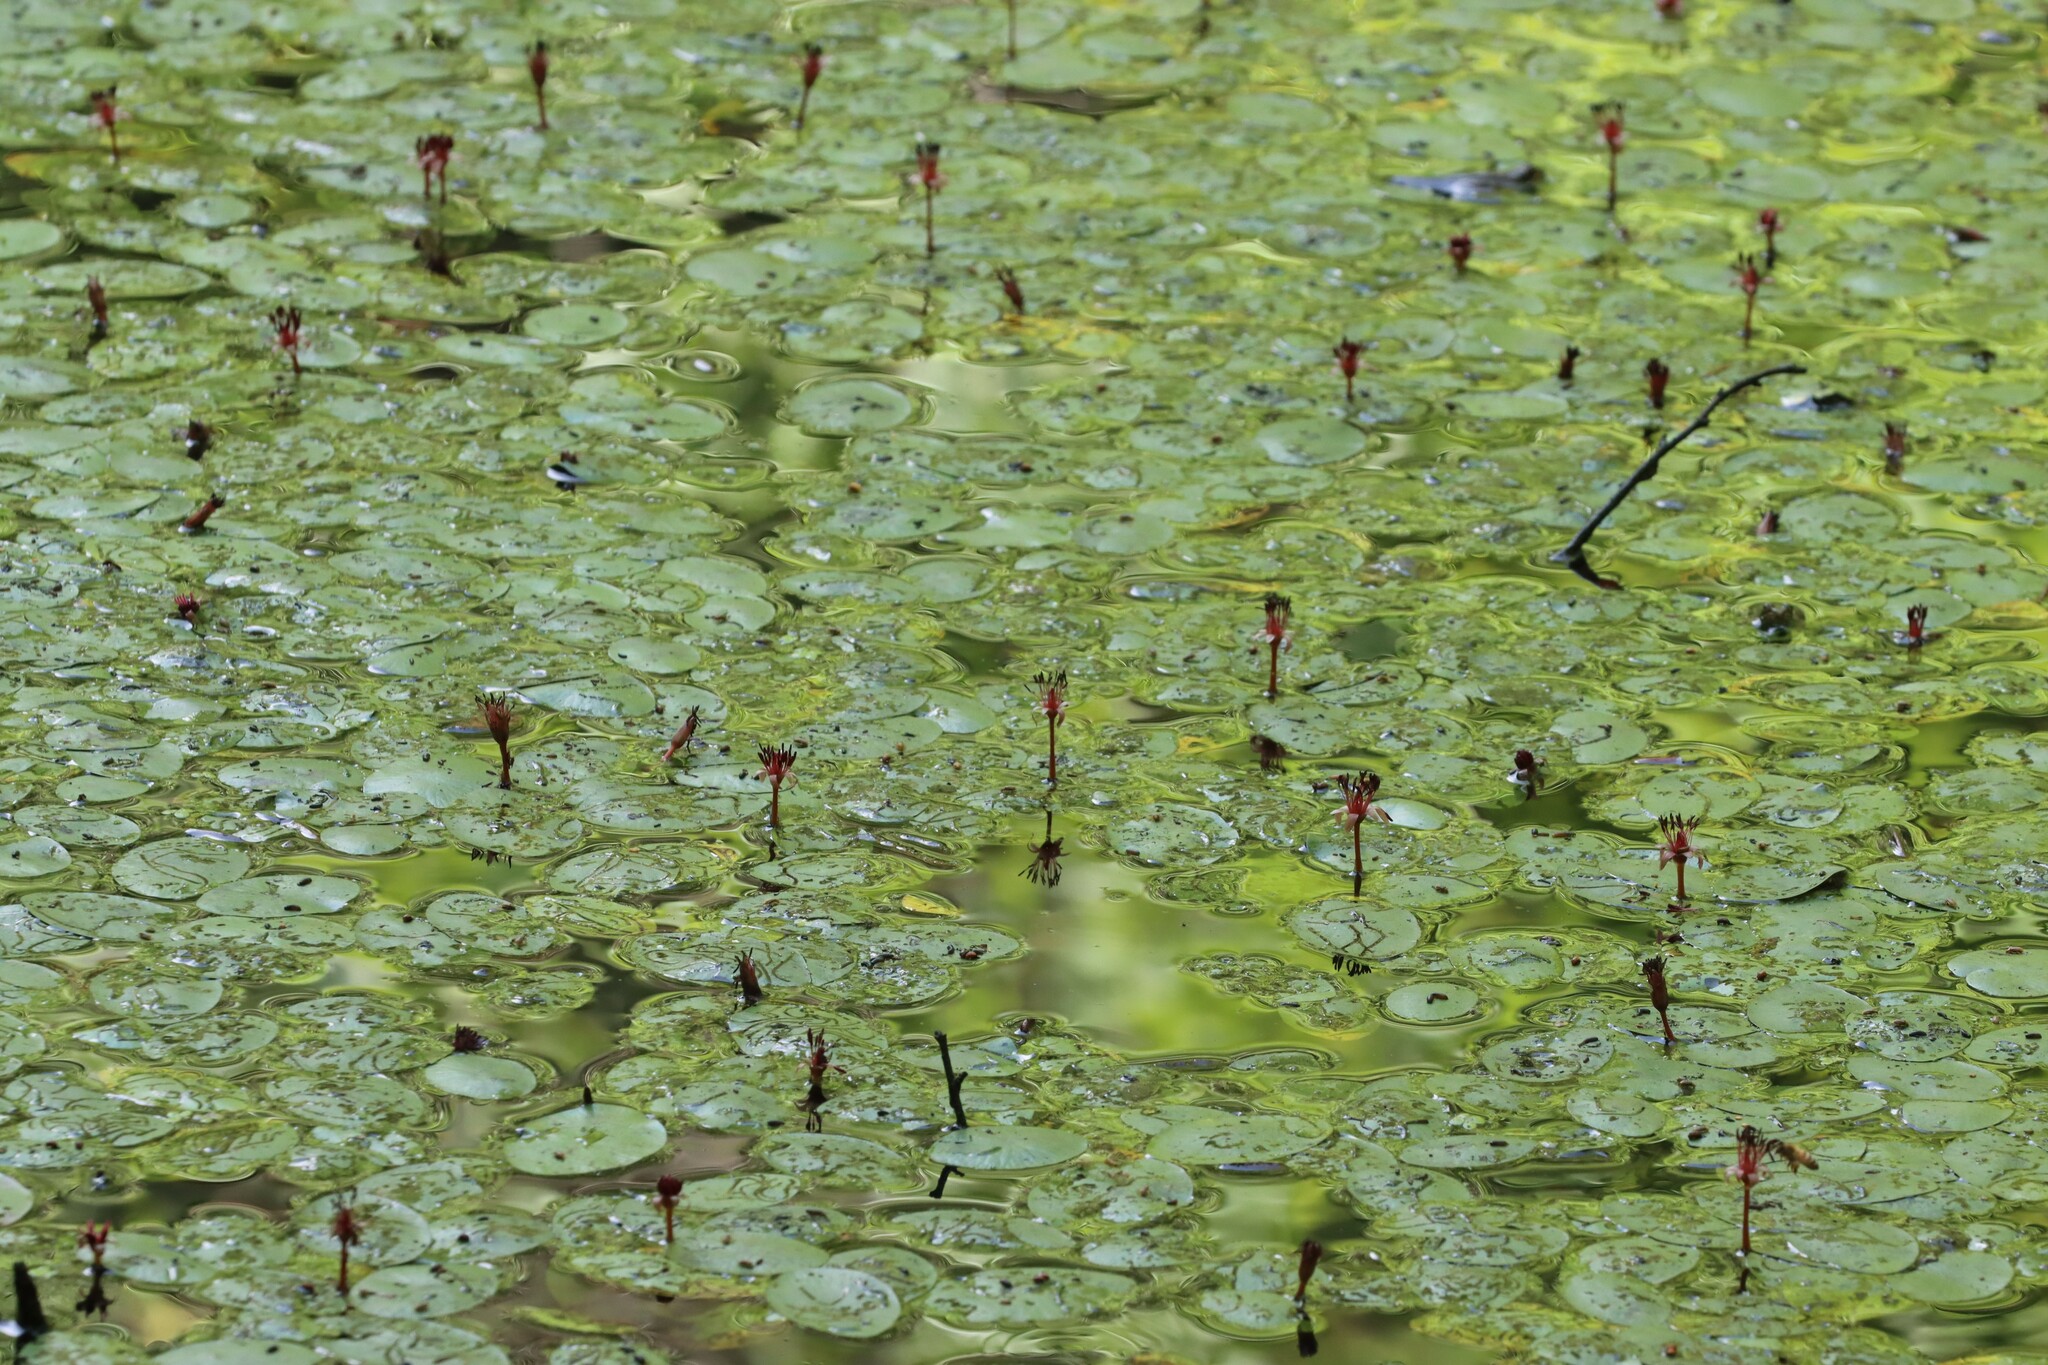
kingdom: Plantae
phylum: Tracheophyta
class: Magnoliopsida
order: Nymphaeales
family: Cabombaceae
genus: Brasenia
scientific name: Brasenia schreberi
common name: Water-shield
